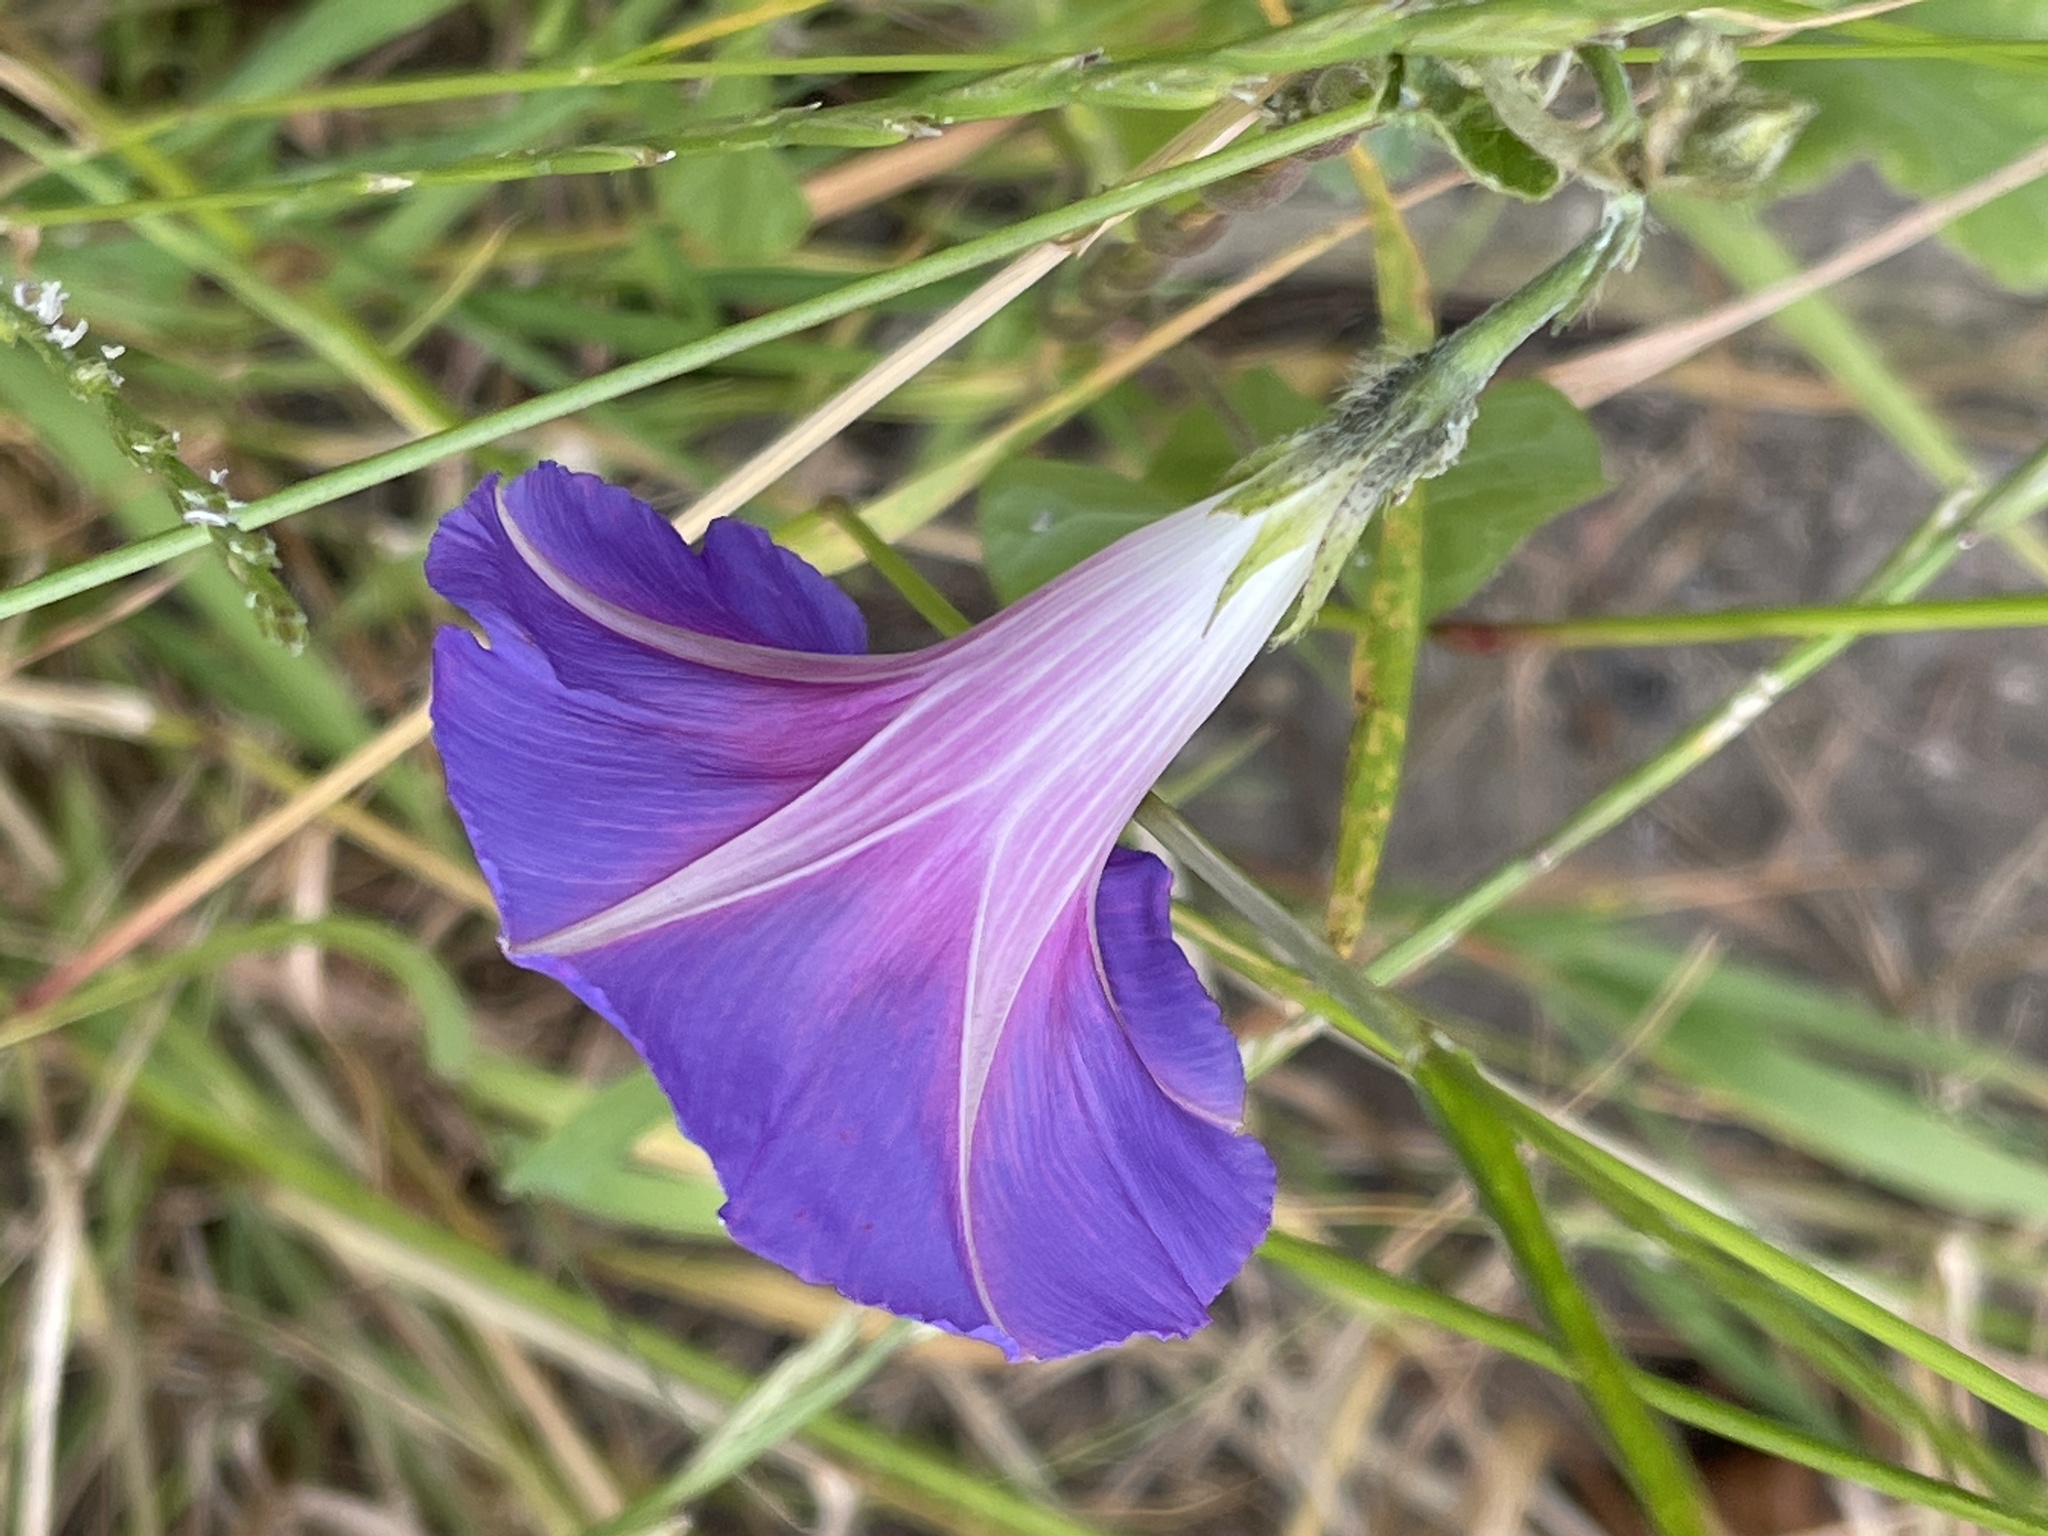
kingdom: Plantae
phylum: Tracheophyta
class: Magnoliopsida
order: Solanales
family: Convolvulaceae
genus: Ipomoea
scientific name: Ipomoea purpurea
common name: Common morning-glory
